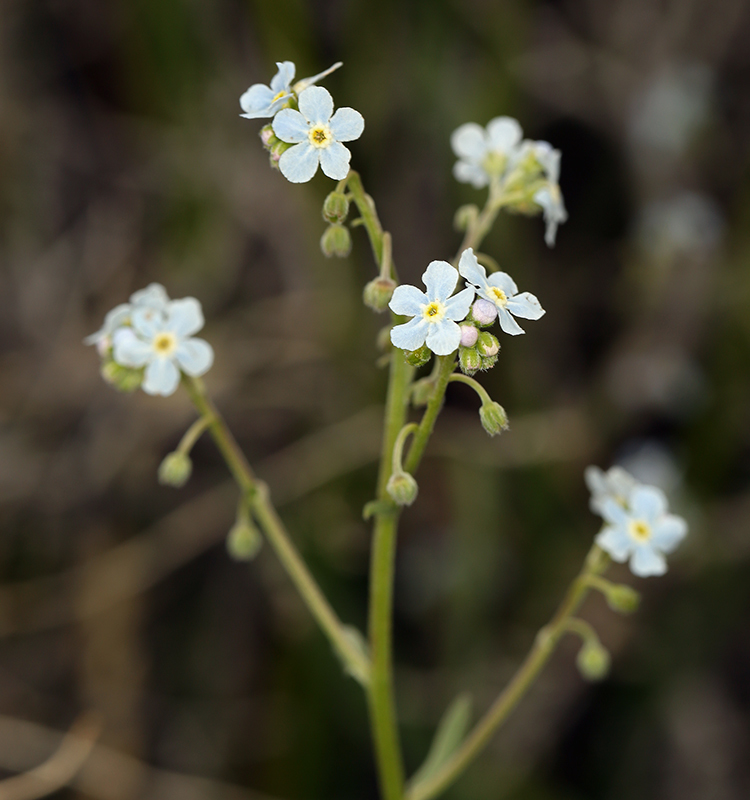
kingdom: Plantae
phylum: Tracheophyta
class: Magnoliopsida
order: Boraginales
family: Boraginaceae
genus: Hackelia
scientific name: Hackelia brevicula
